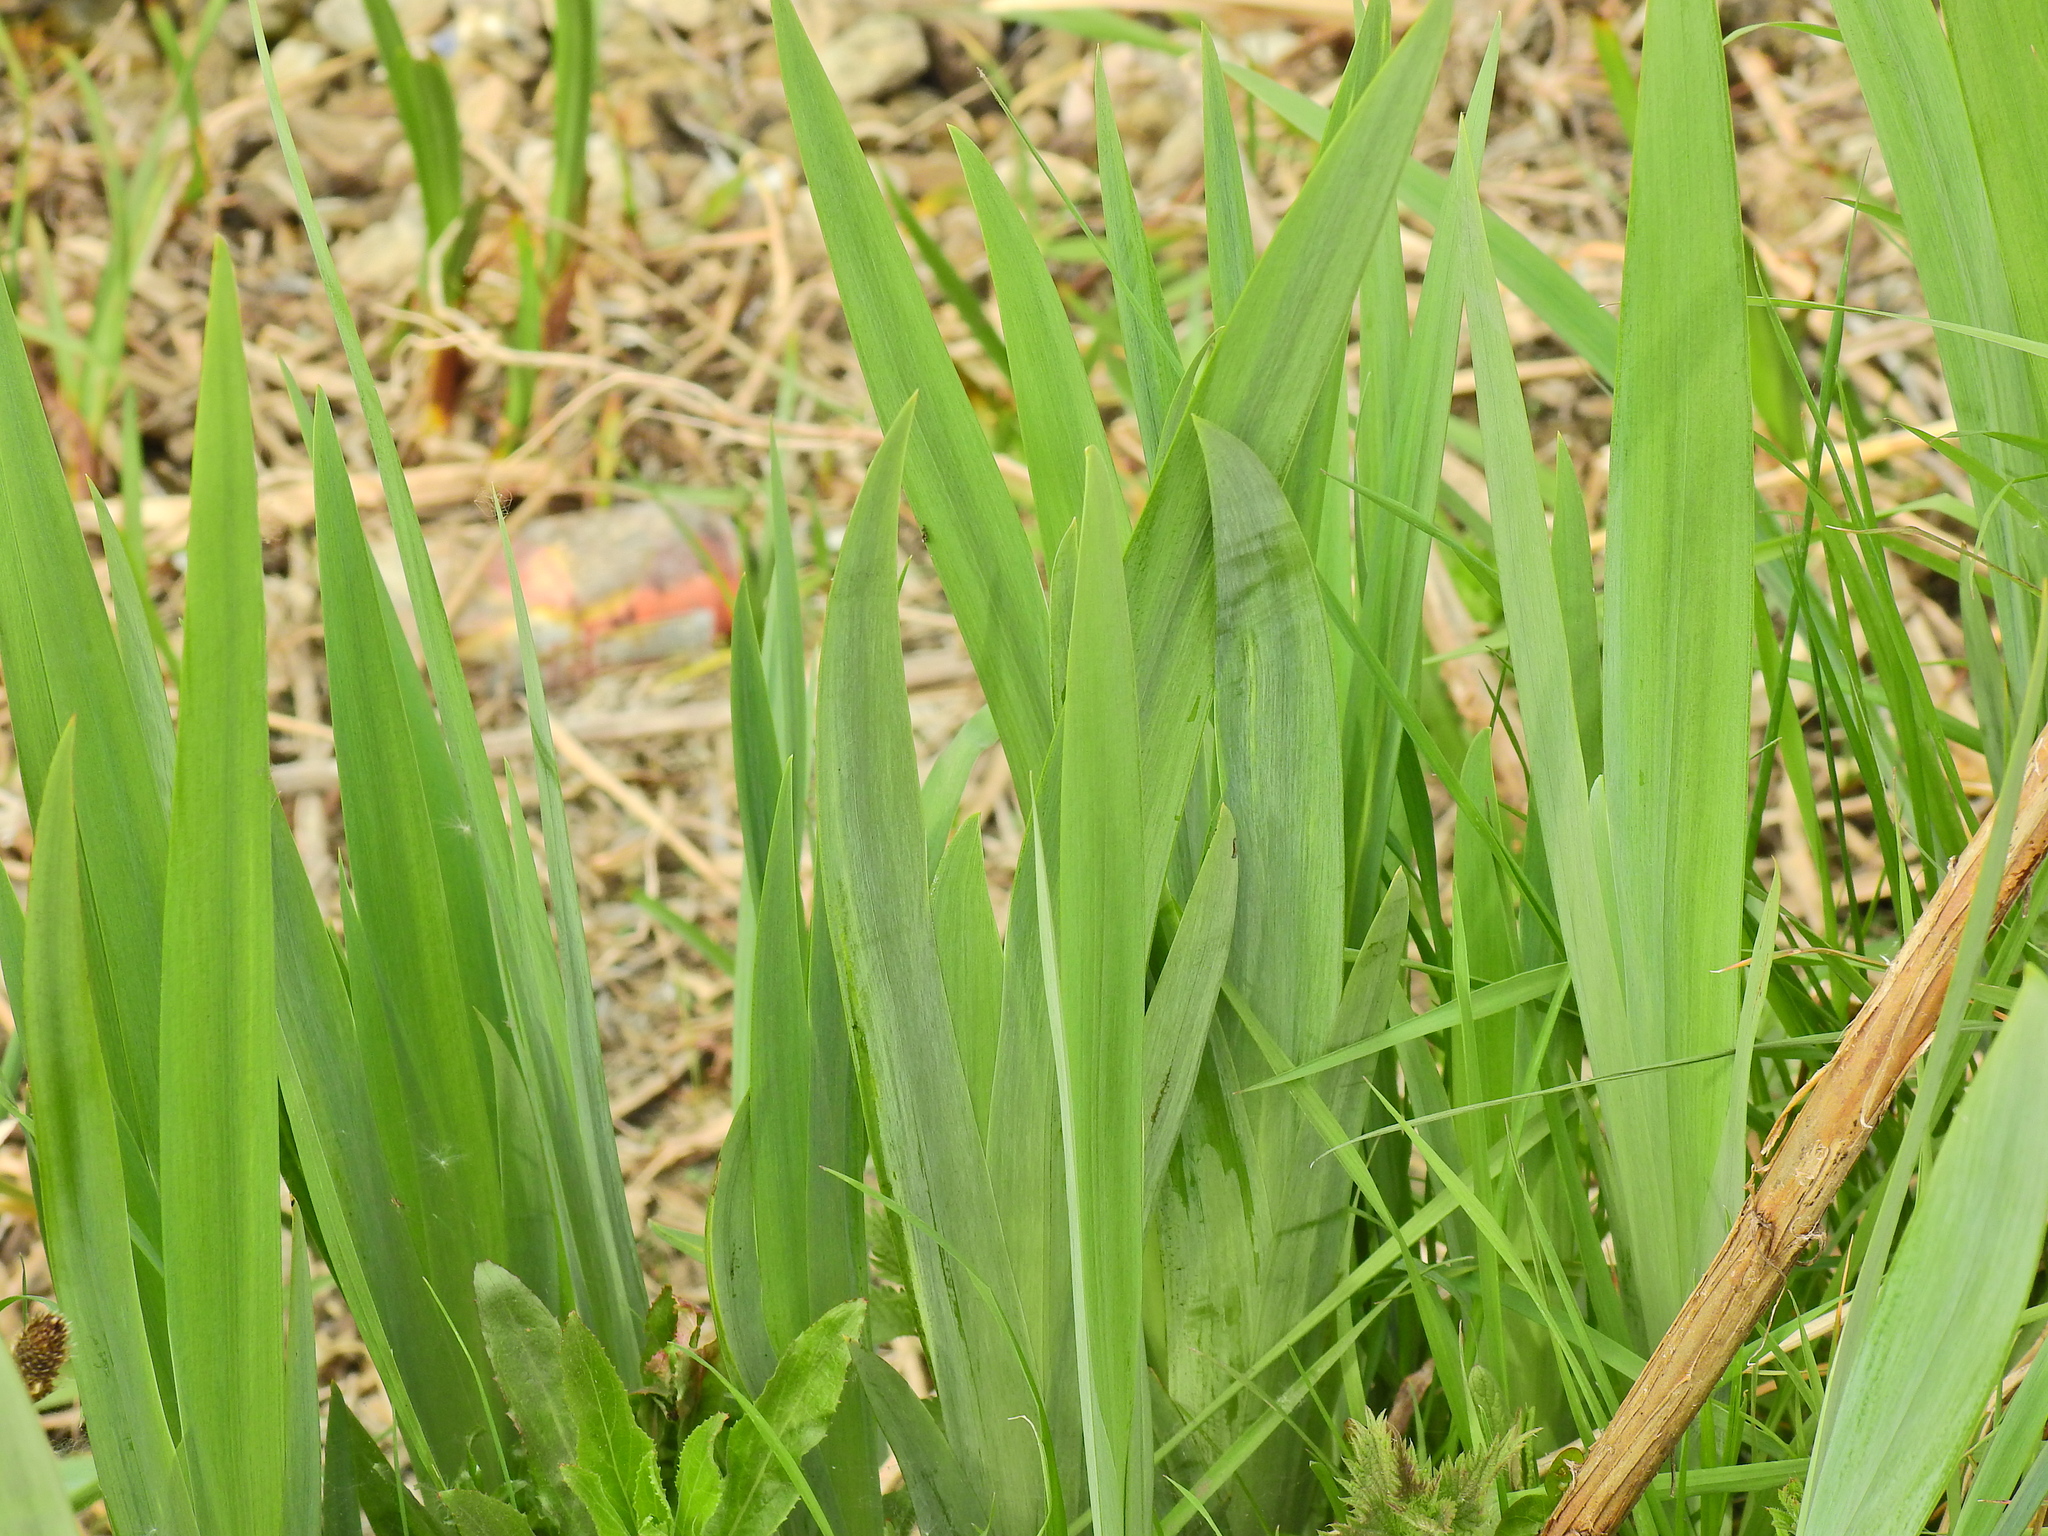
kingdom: Plantae
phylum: Tracheophyta
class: Liliopsida
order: Asparagales
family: Iridaceae
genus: Iris
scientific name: Iris pseudacorus
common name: Yellow flag
